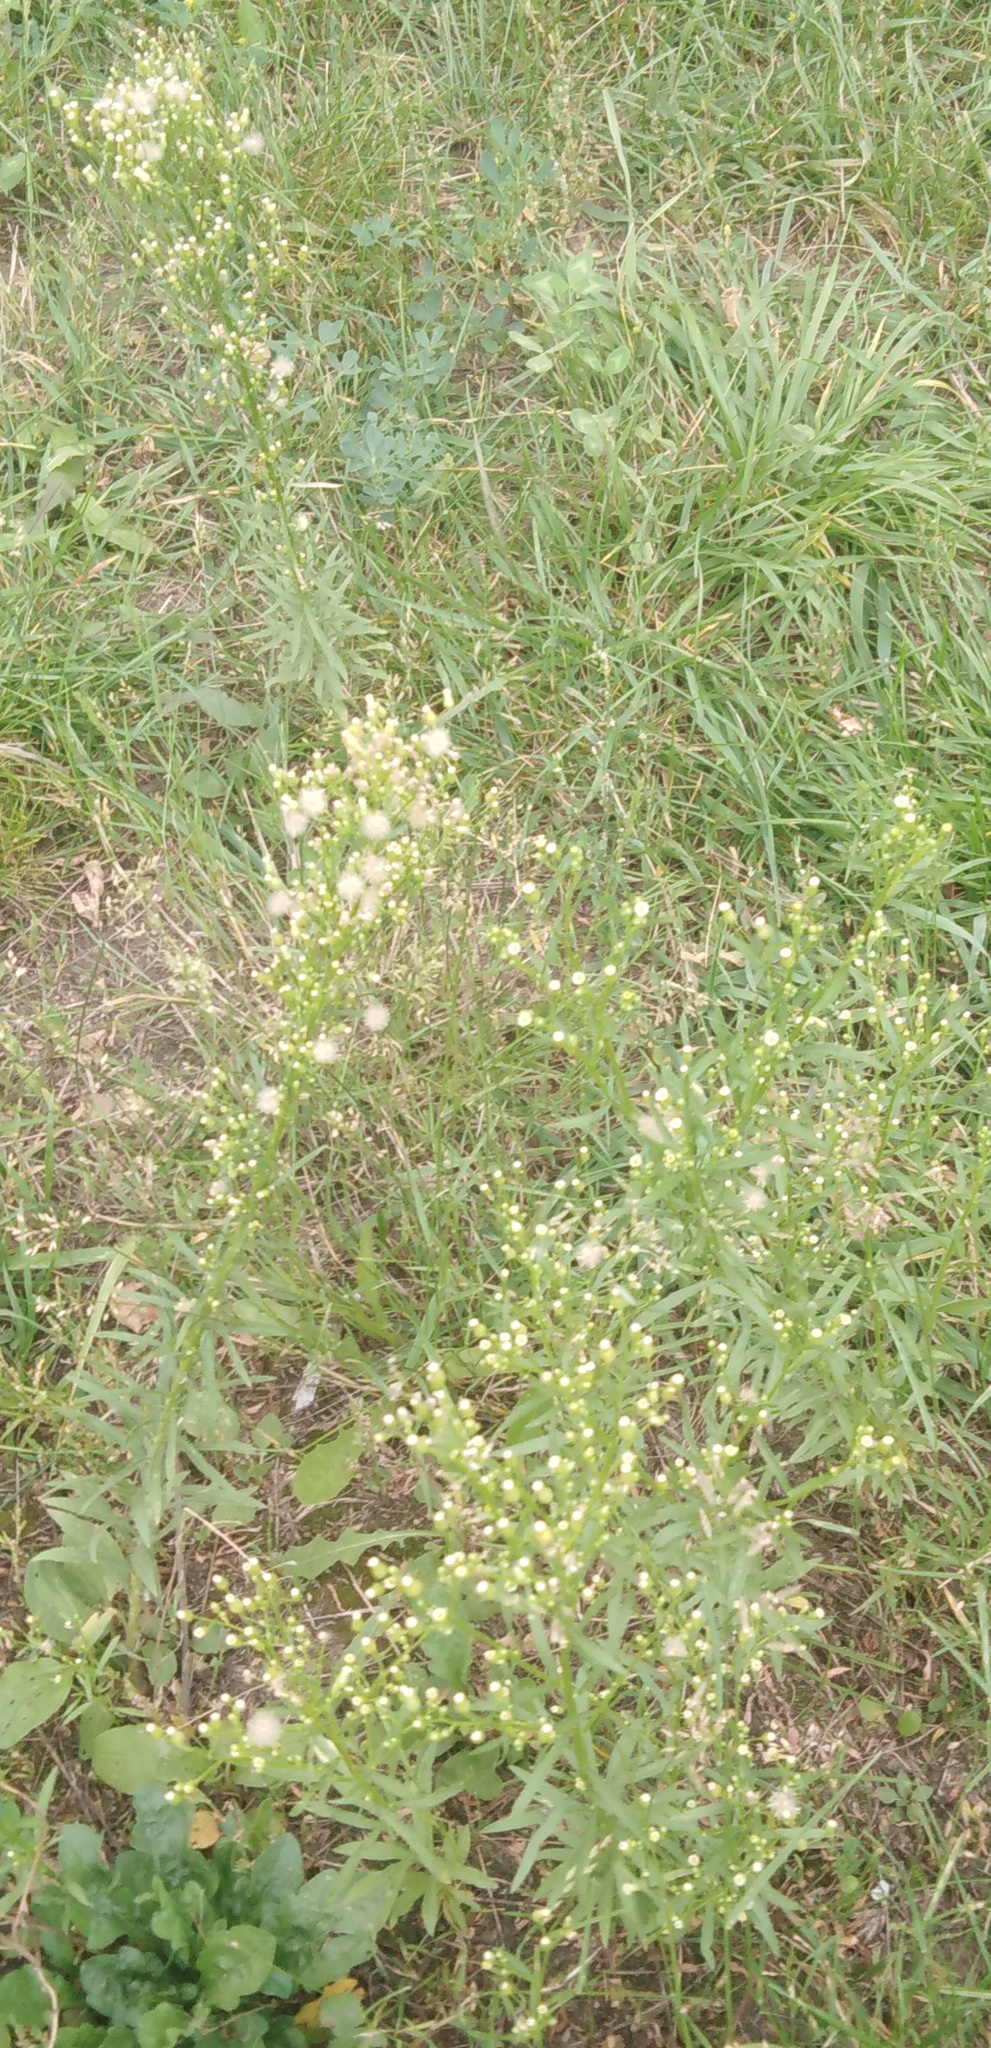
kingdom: Plantae
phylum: Tracheophyta
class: Magnoliopsida
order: Asterales
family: Asteraceae
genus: Erigeron
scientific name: Erigeron canadensis
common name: Canadian fleabane
